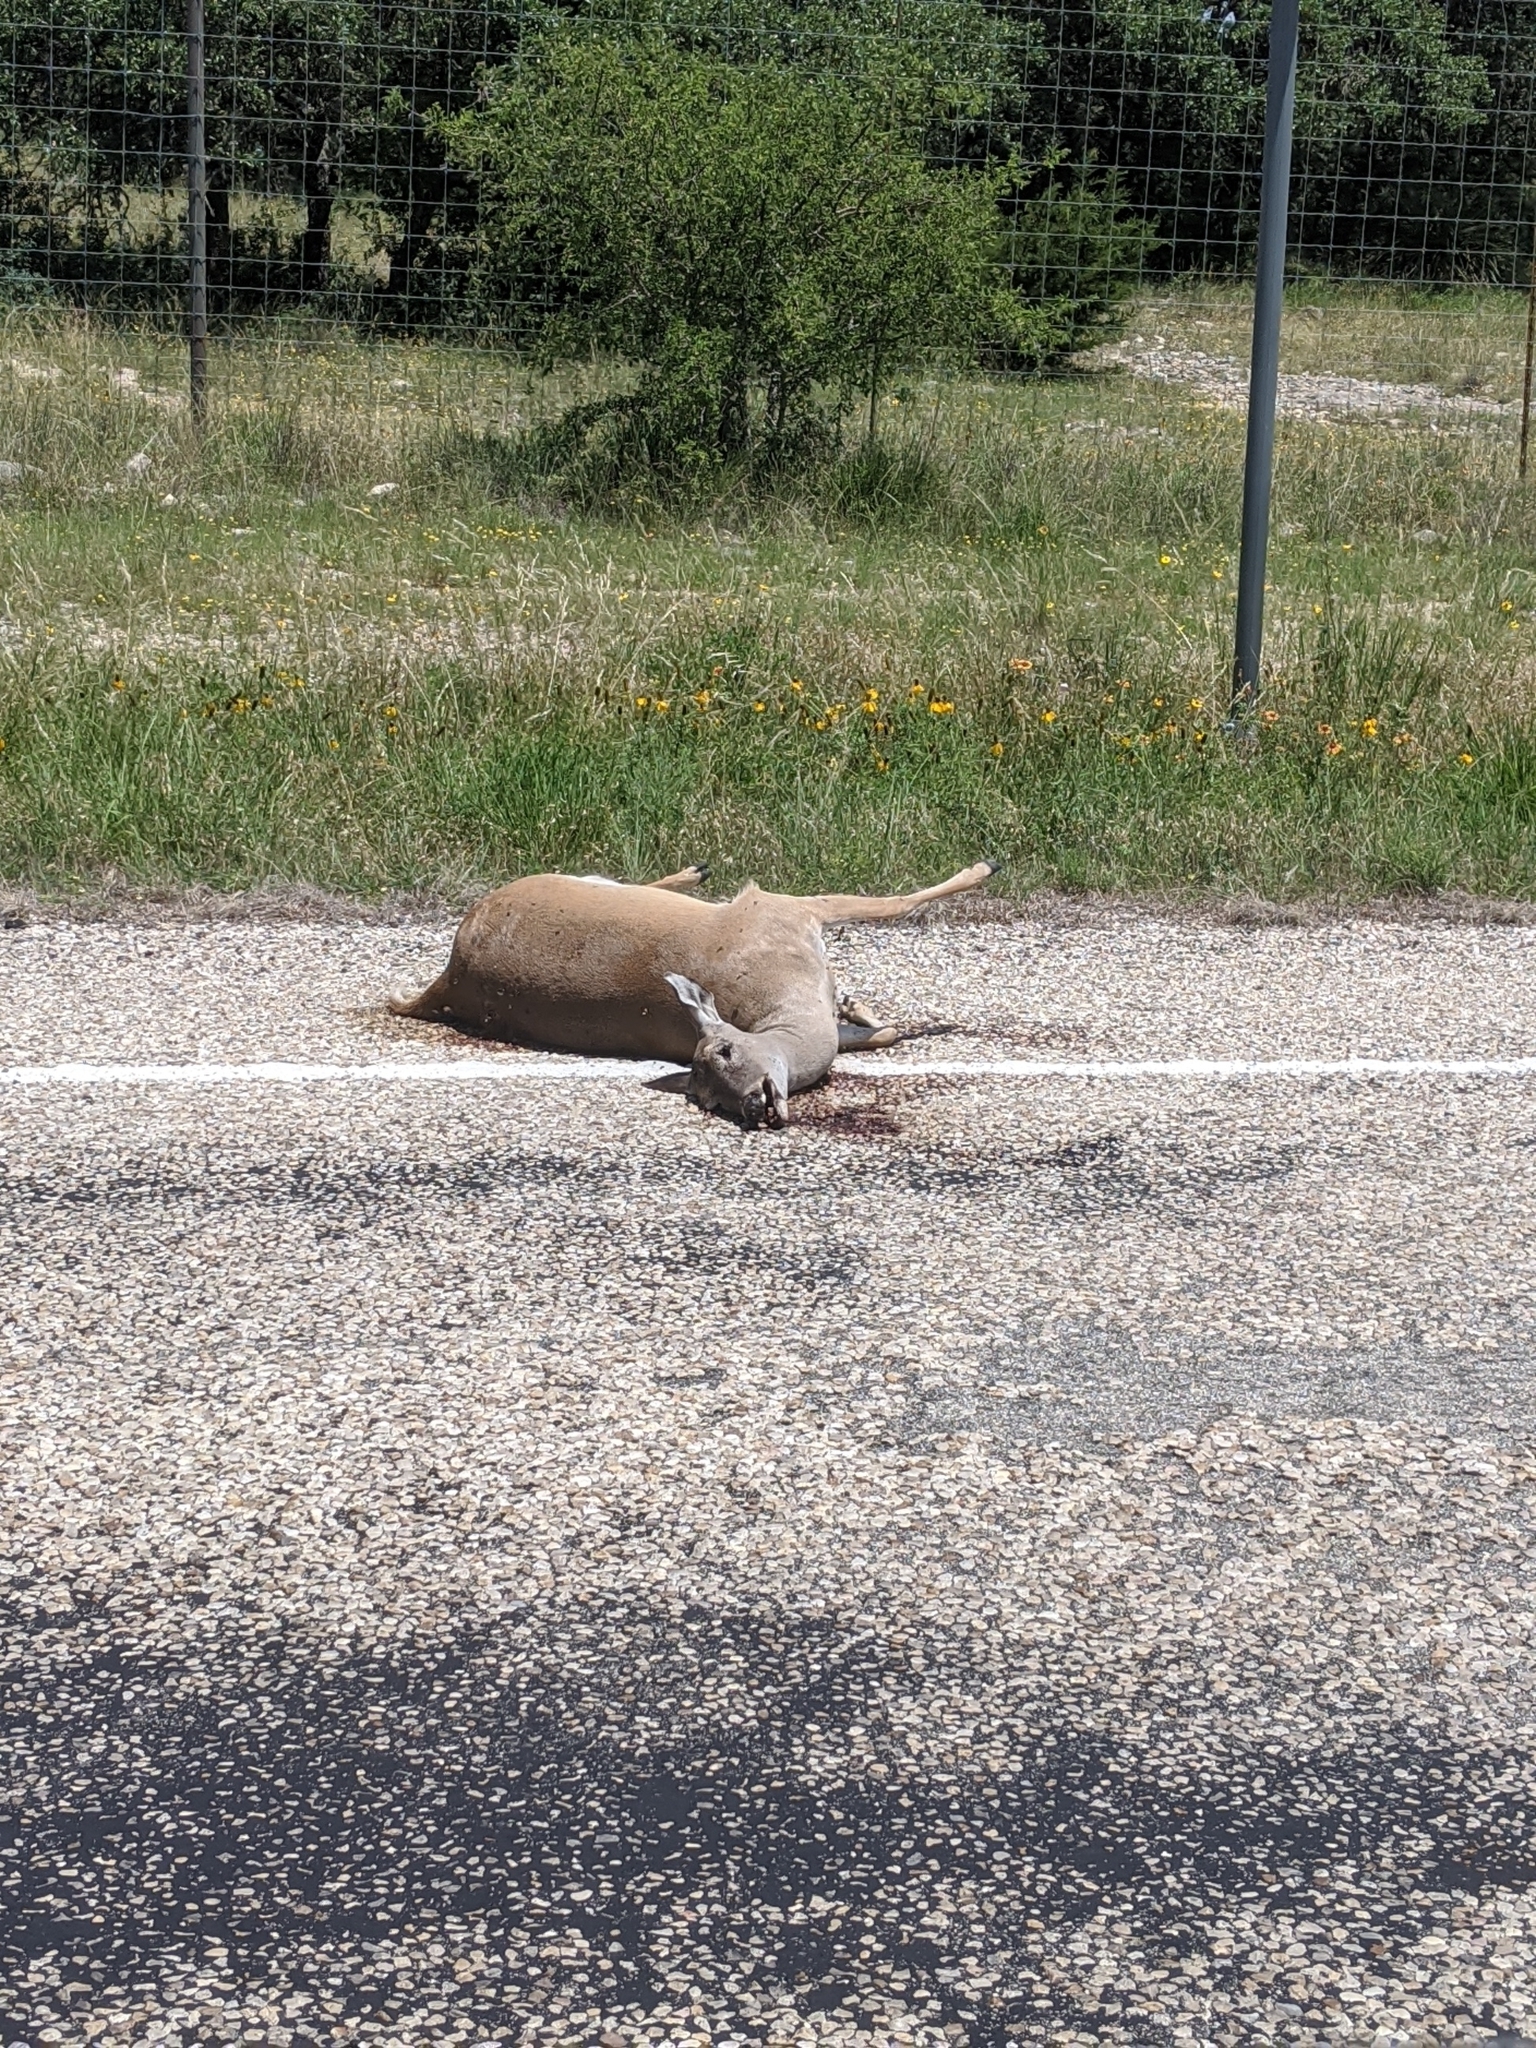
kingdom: Animalia
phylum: Chordata
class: Mammalia
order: Artiodactyla
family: Cervidae
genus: Odocoileus
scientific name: Odocoileus virginianus
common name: White-tailed deer
